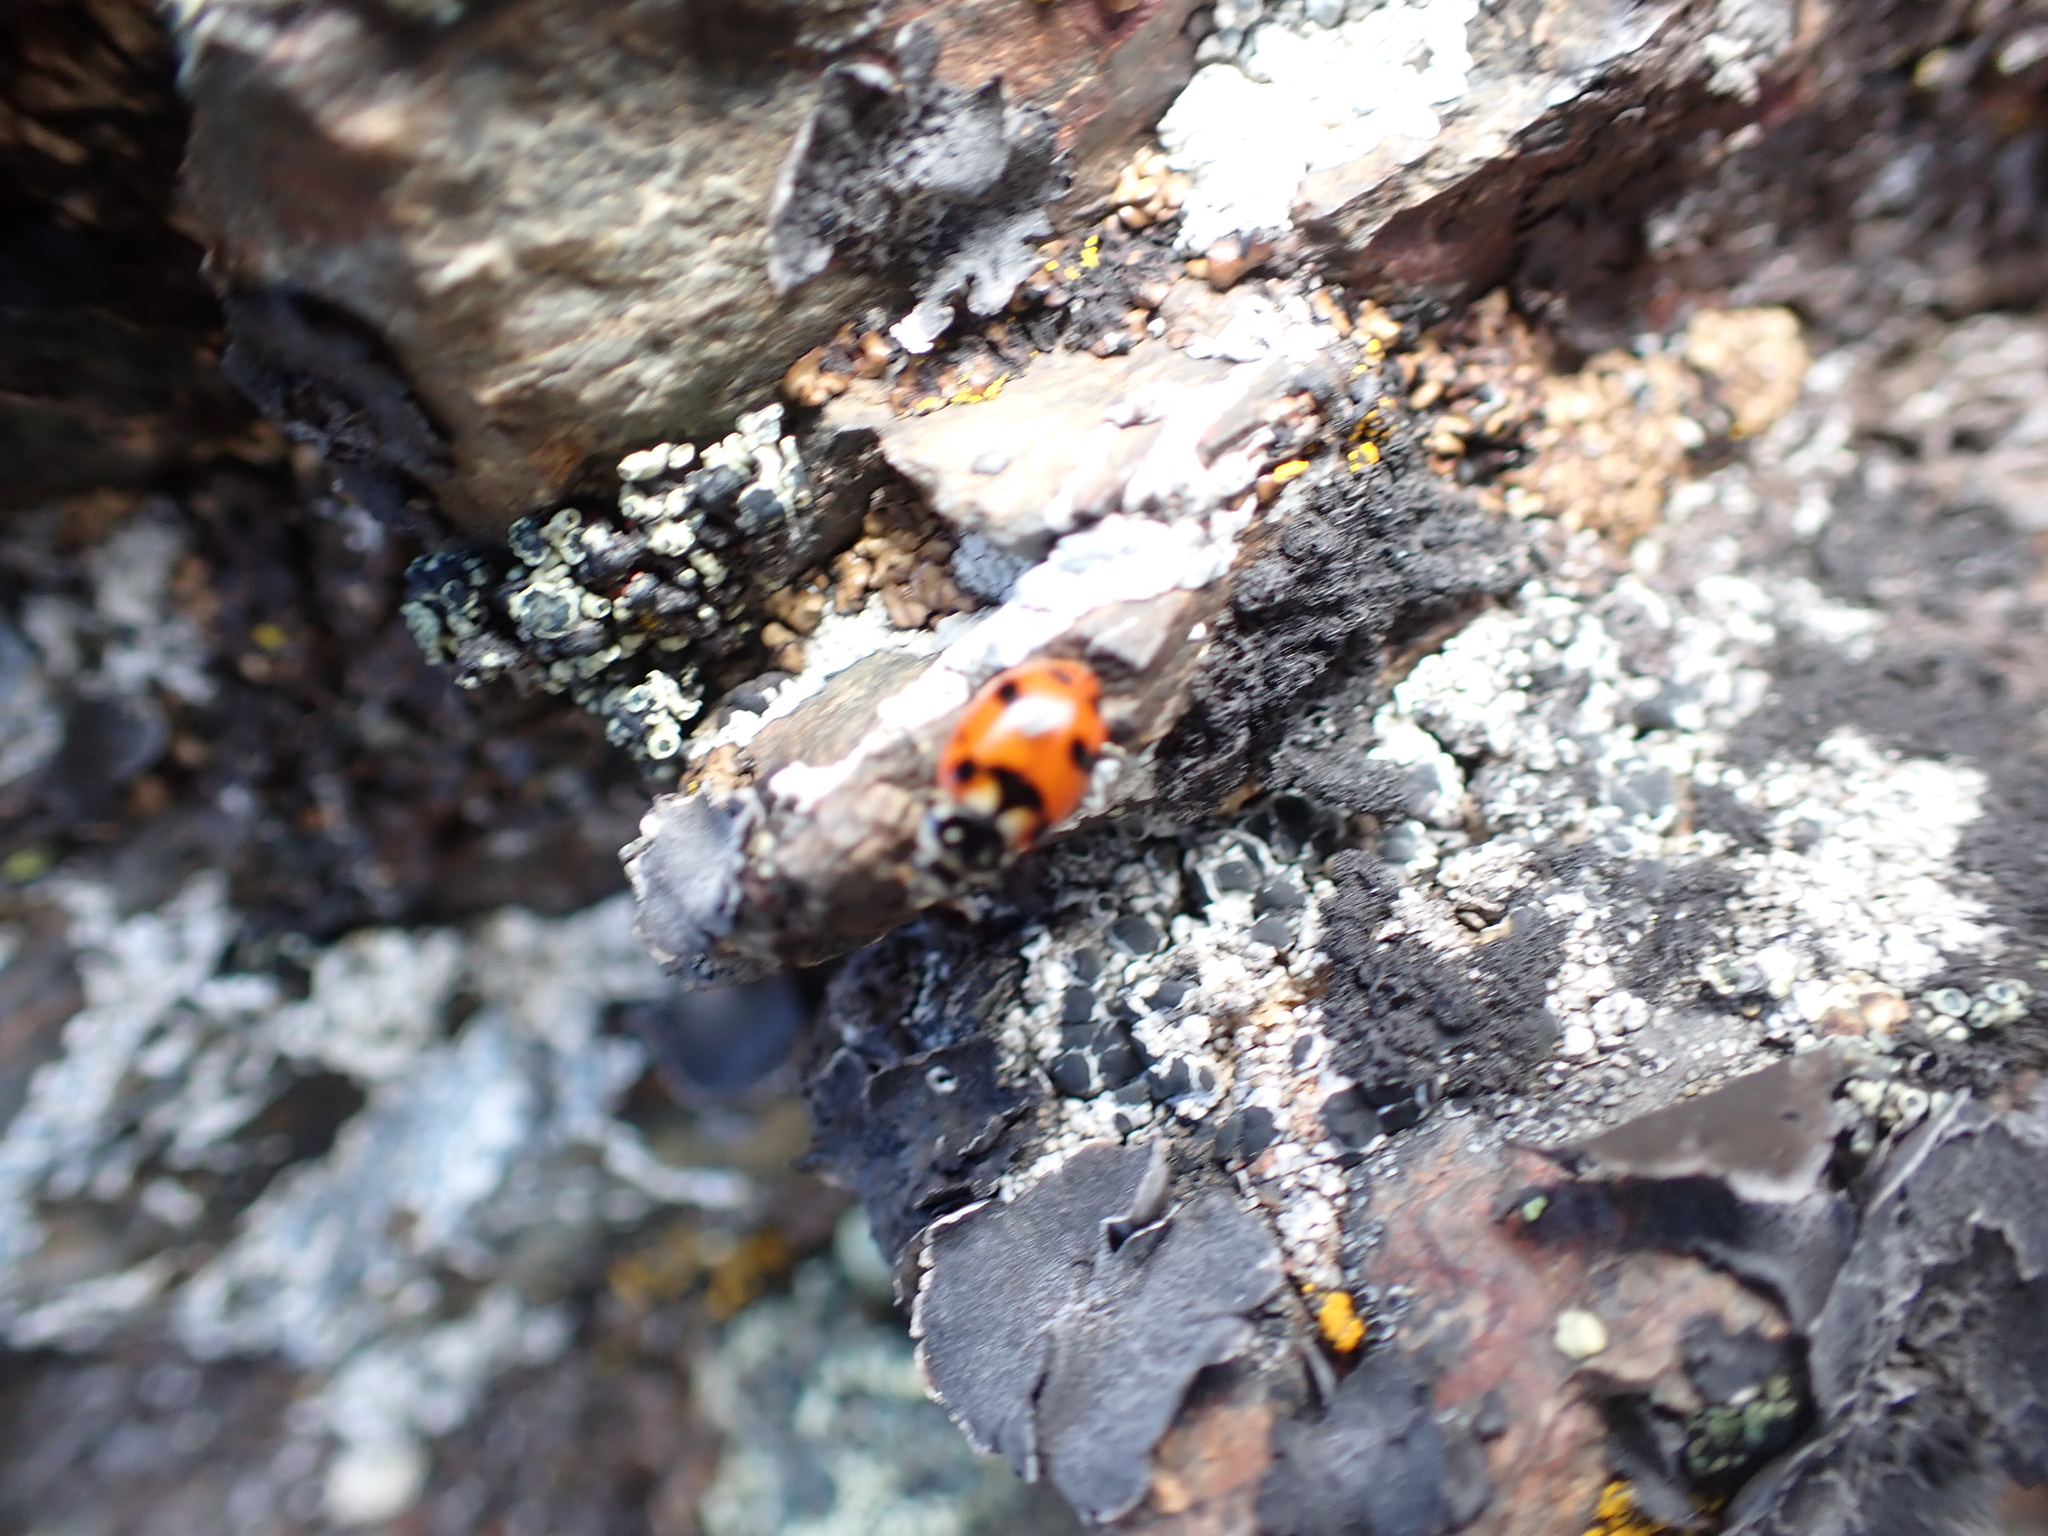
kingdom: Animalia
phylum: Arthropoda
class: Insecta
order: Coleoptera
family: Coccinellidae
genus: Hippodamia
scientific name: Hippodamia caseyi
